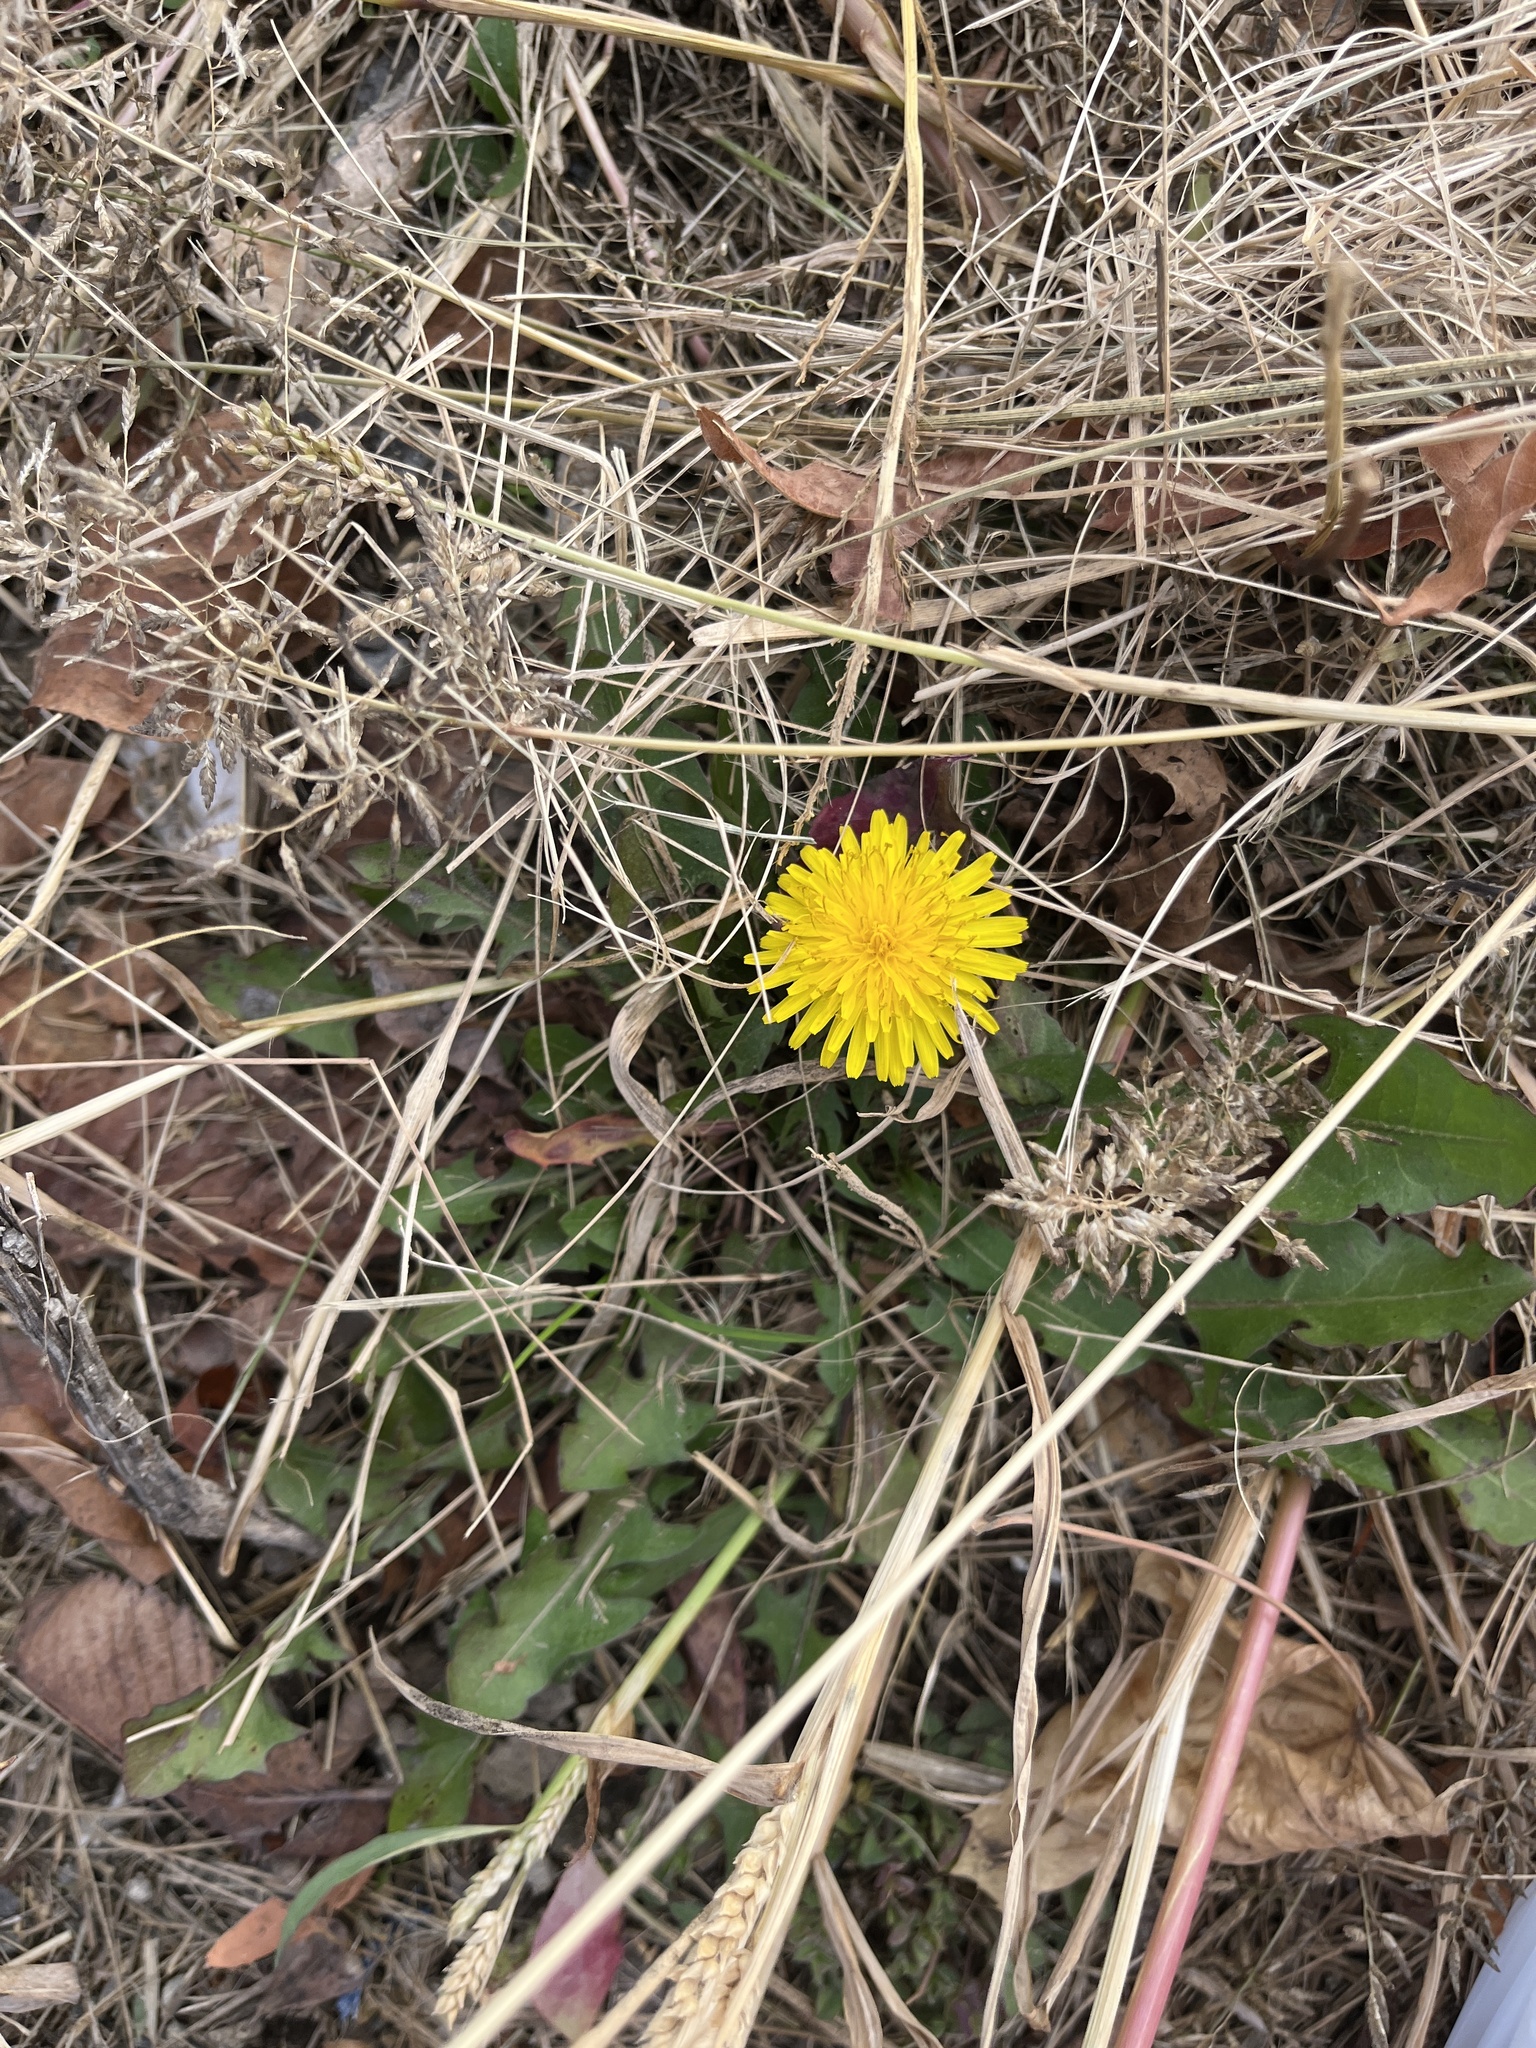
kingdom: Plantae
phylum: Tracheophyta
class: Magnoliopsida
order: Asterales
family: Asteraceae
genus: Taraxacum
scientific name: Taraxacum officinale
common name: Common dandelion
